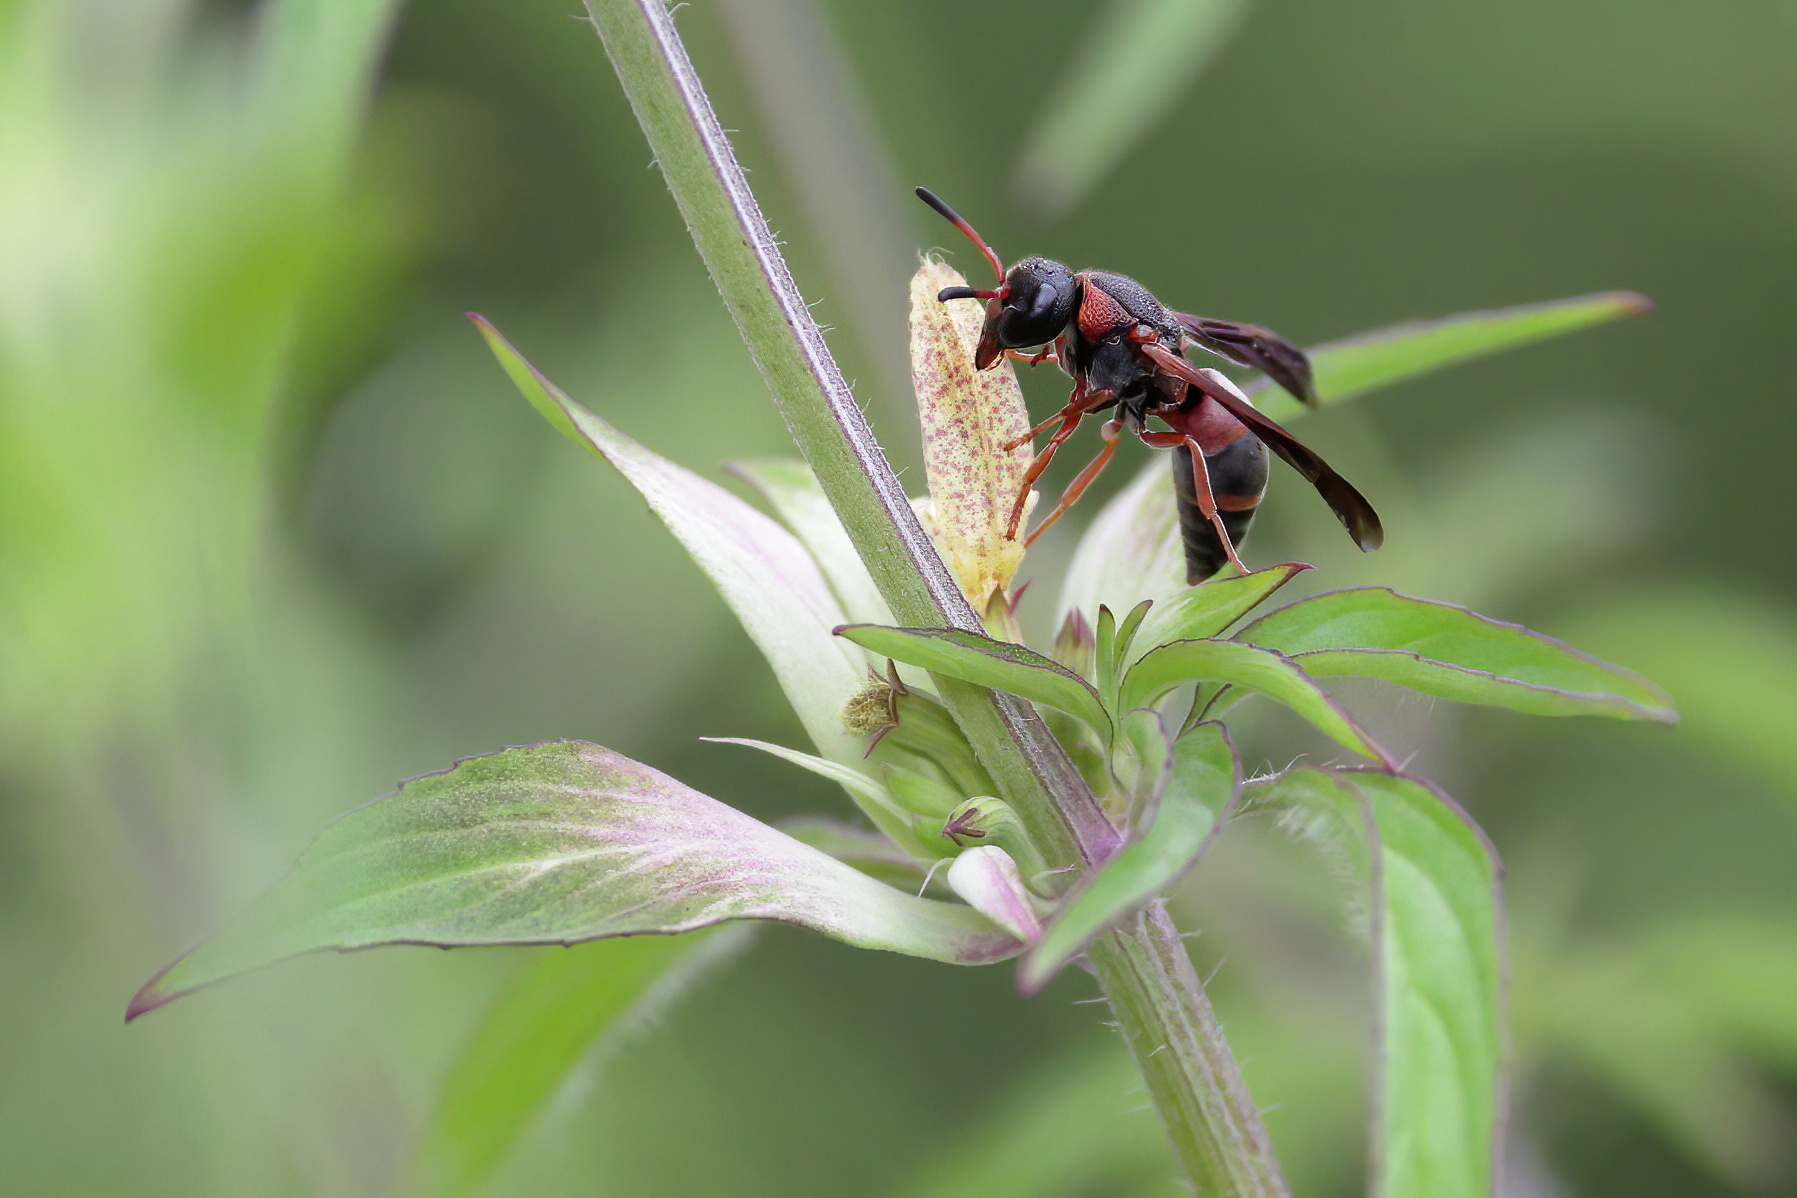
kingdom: Animalia
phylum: Arthropoda
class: Insecta
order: Hymenoptera
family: Eumenidae
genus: Pachodynerus
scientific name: Pachodynerus erynnis
